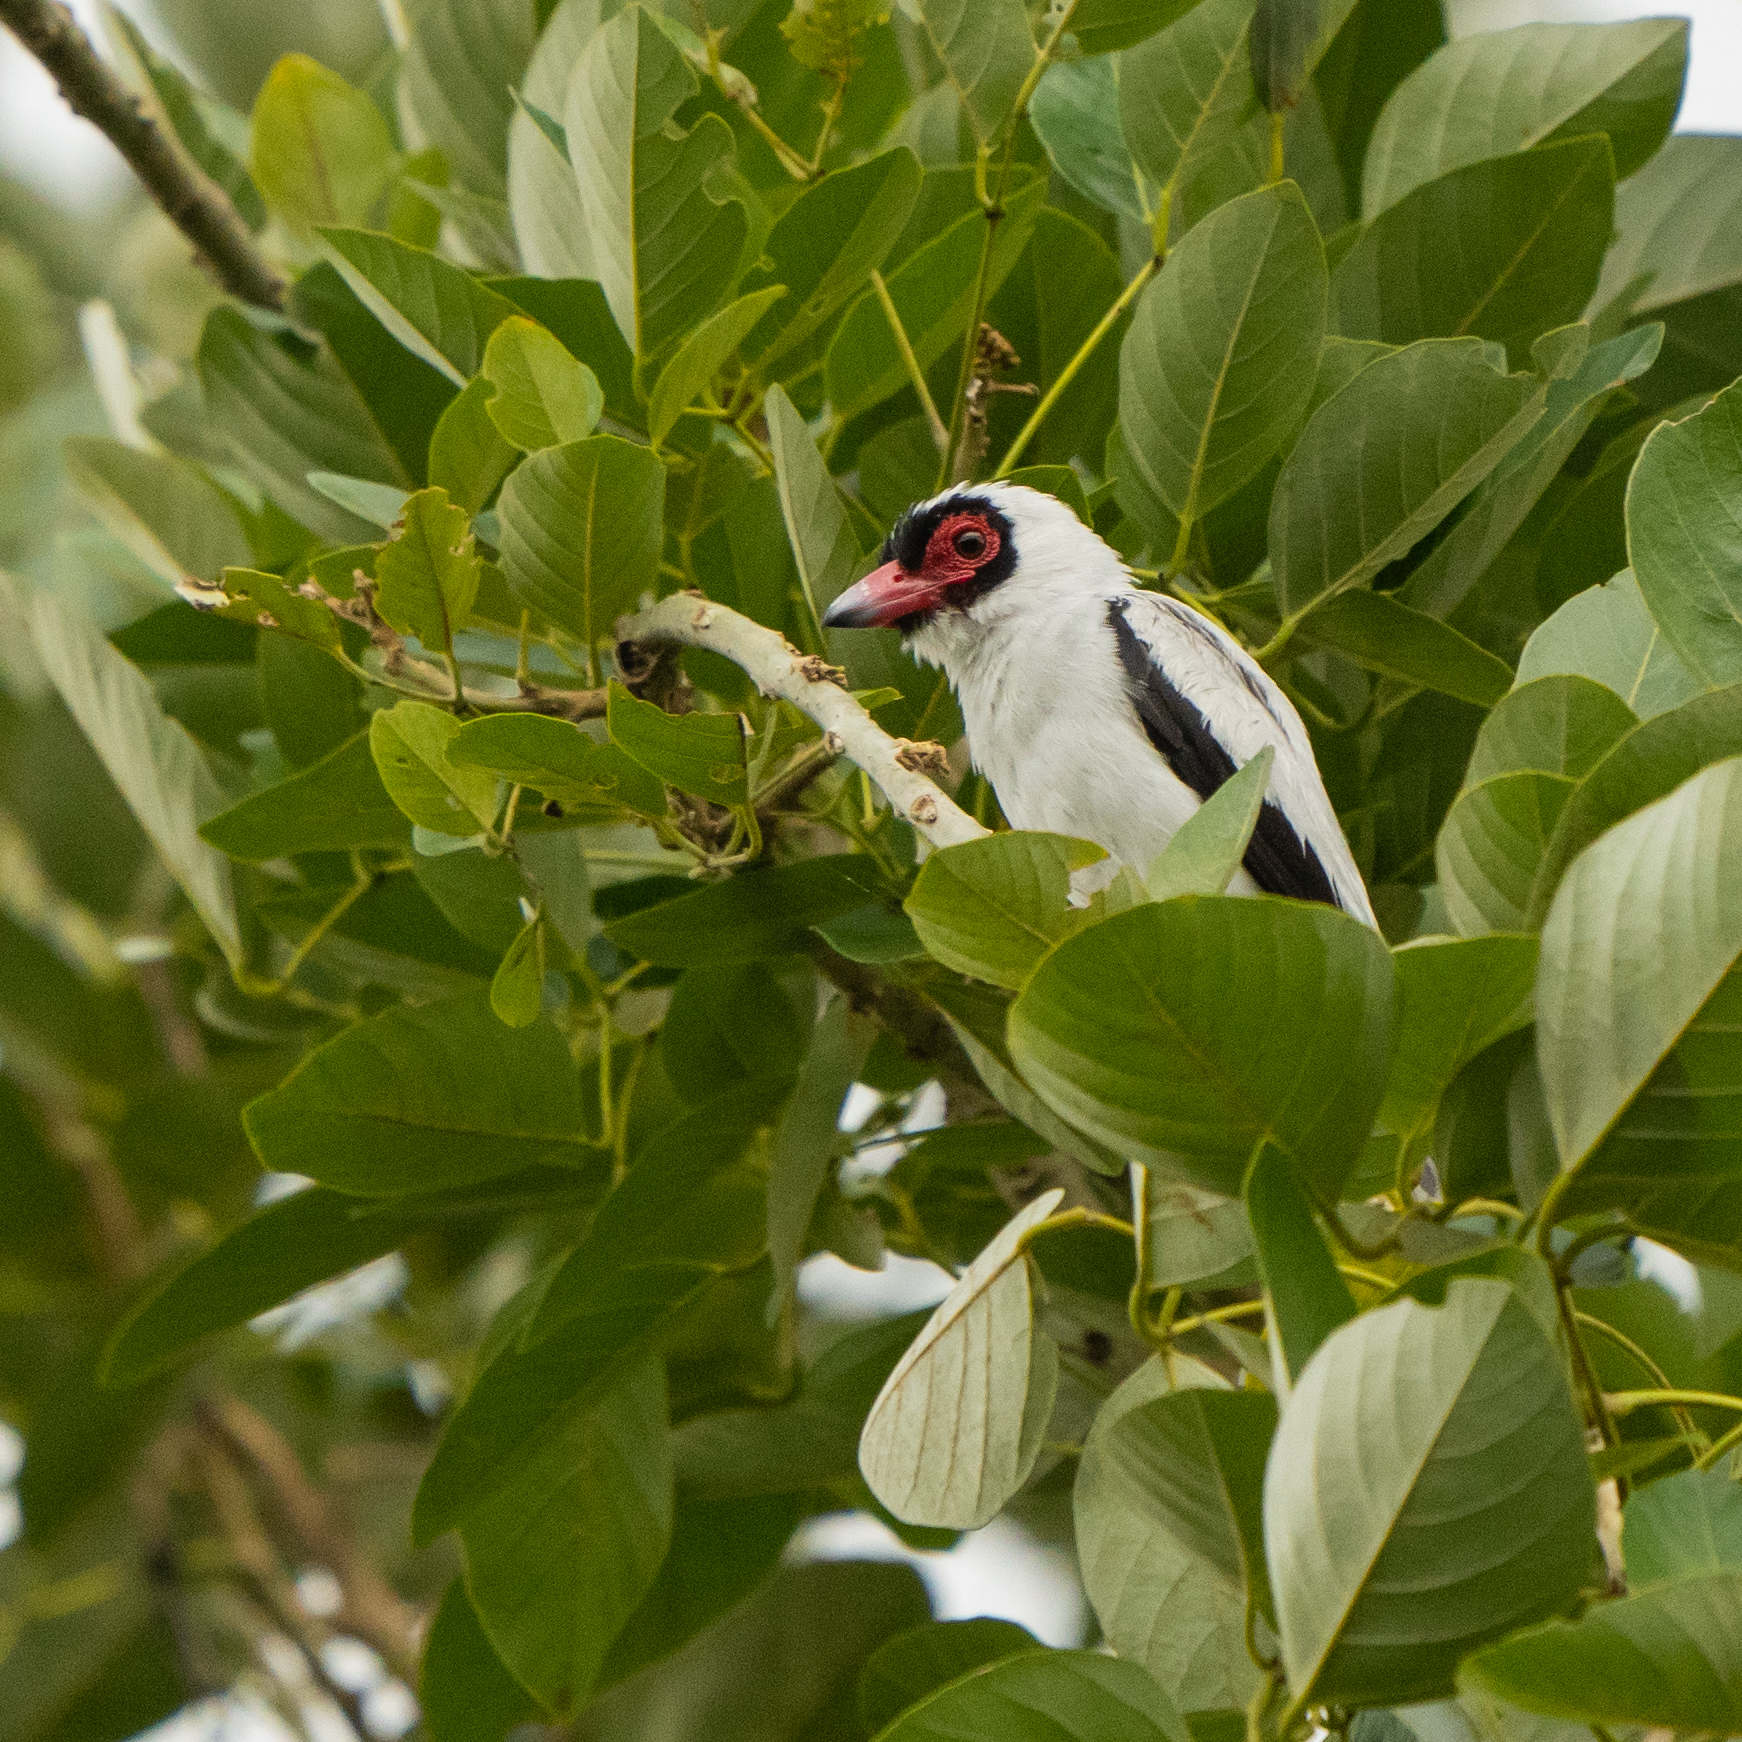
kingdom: Animalia
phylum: Chordata
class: Aves
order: Passeriformes
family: Cotingidae
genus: Tityra
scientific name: Tityra semifasciata
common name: Masked tityra
